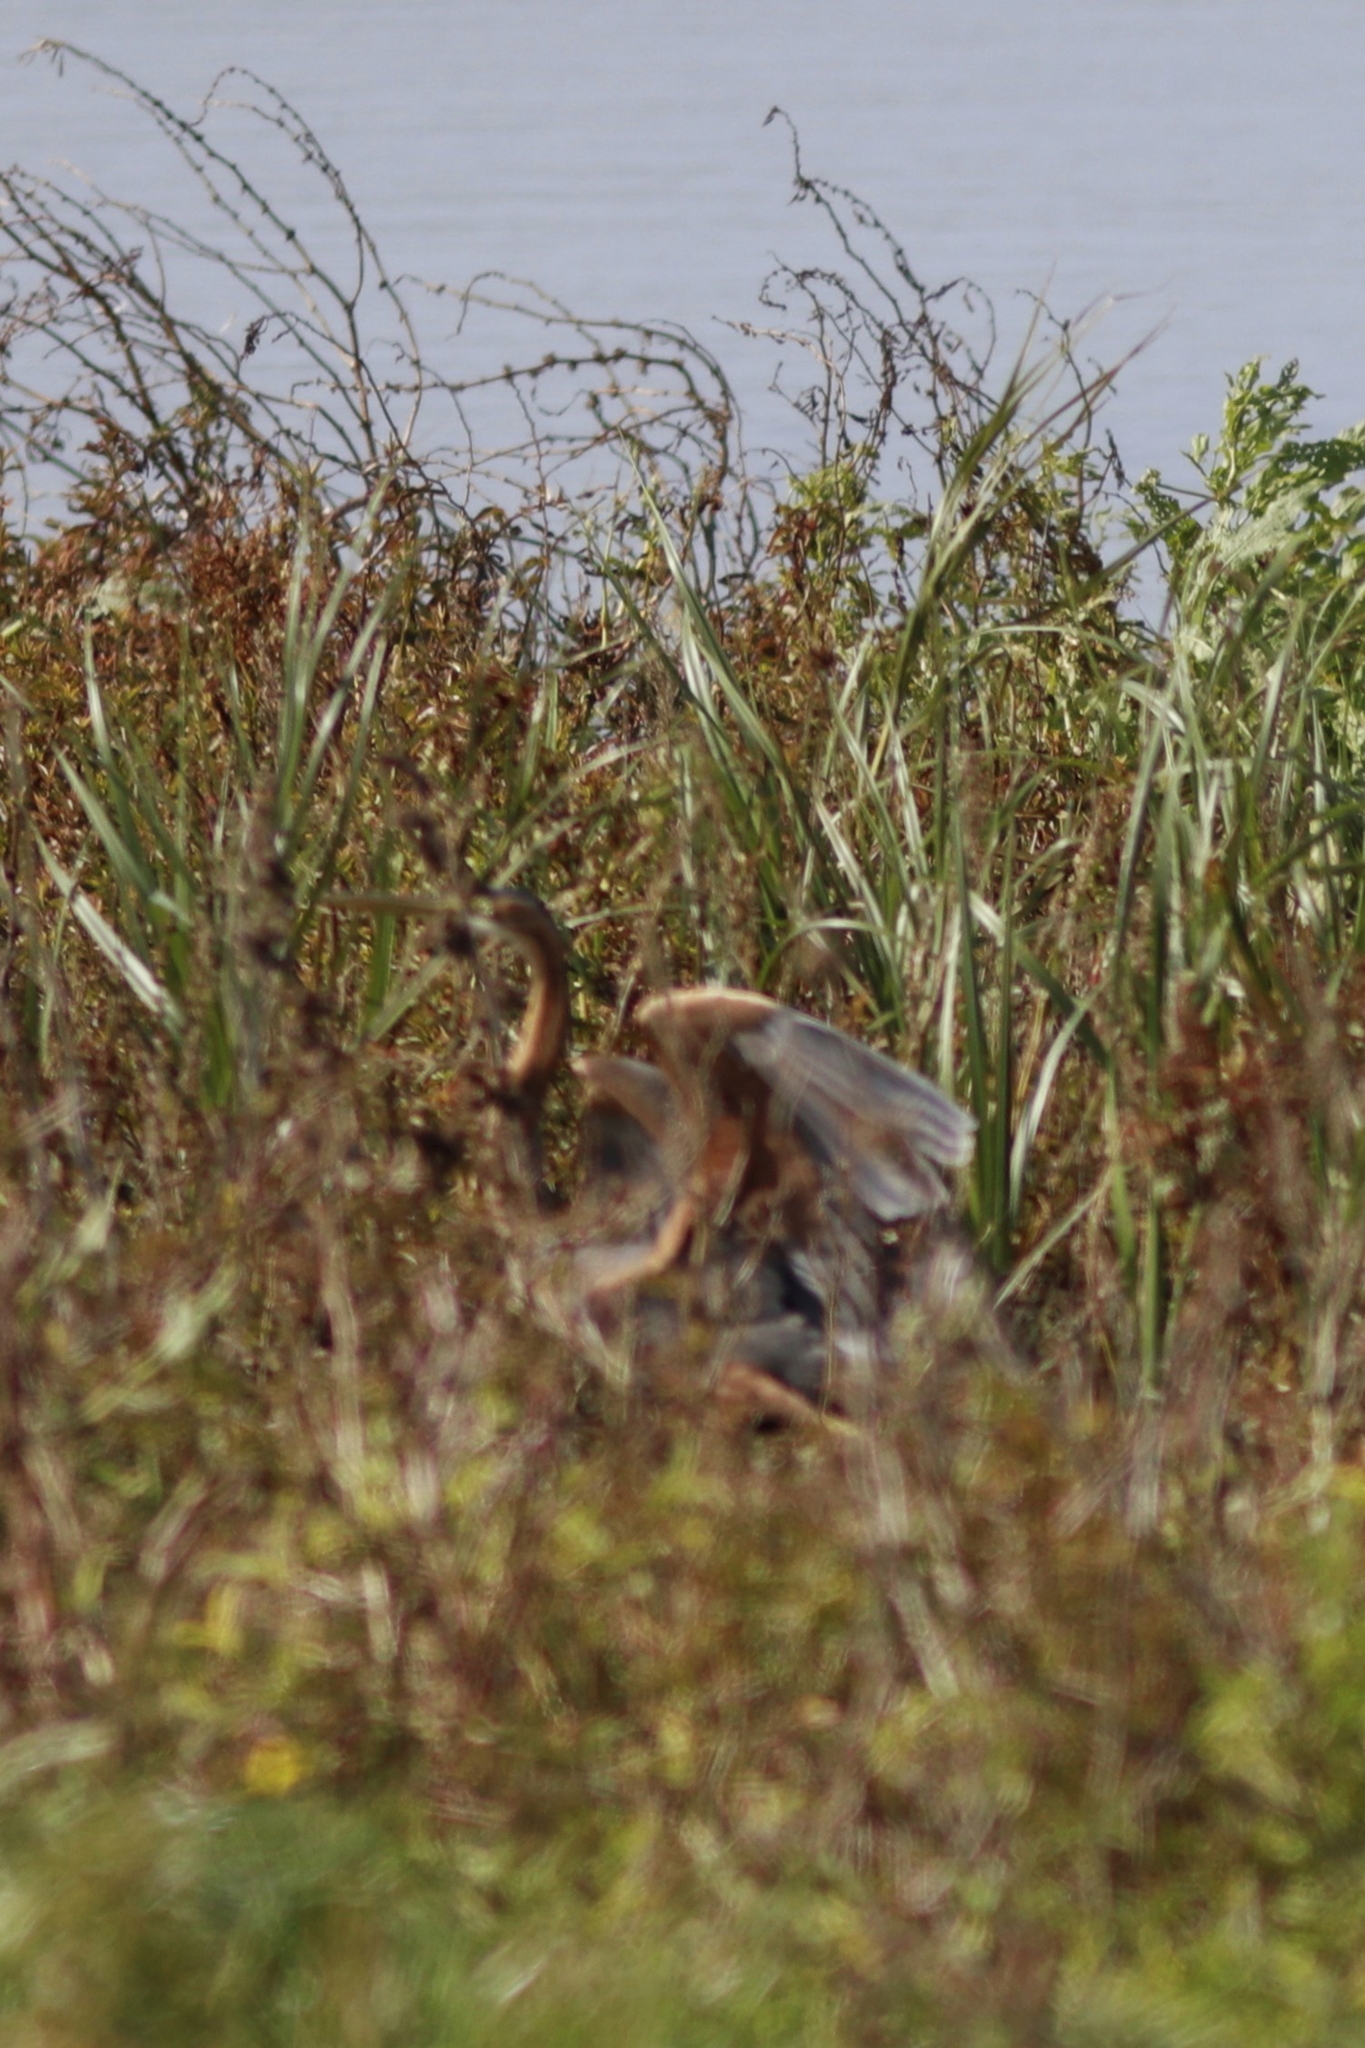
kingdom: Animalia
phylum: Chordata
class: Aves
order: Pelecaniformes
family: Ardeidae
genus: Ardea
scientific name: Ardea purpurea
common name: Purple heron
